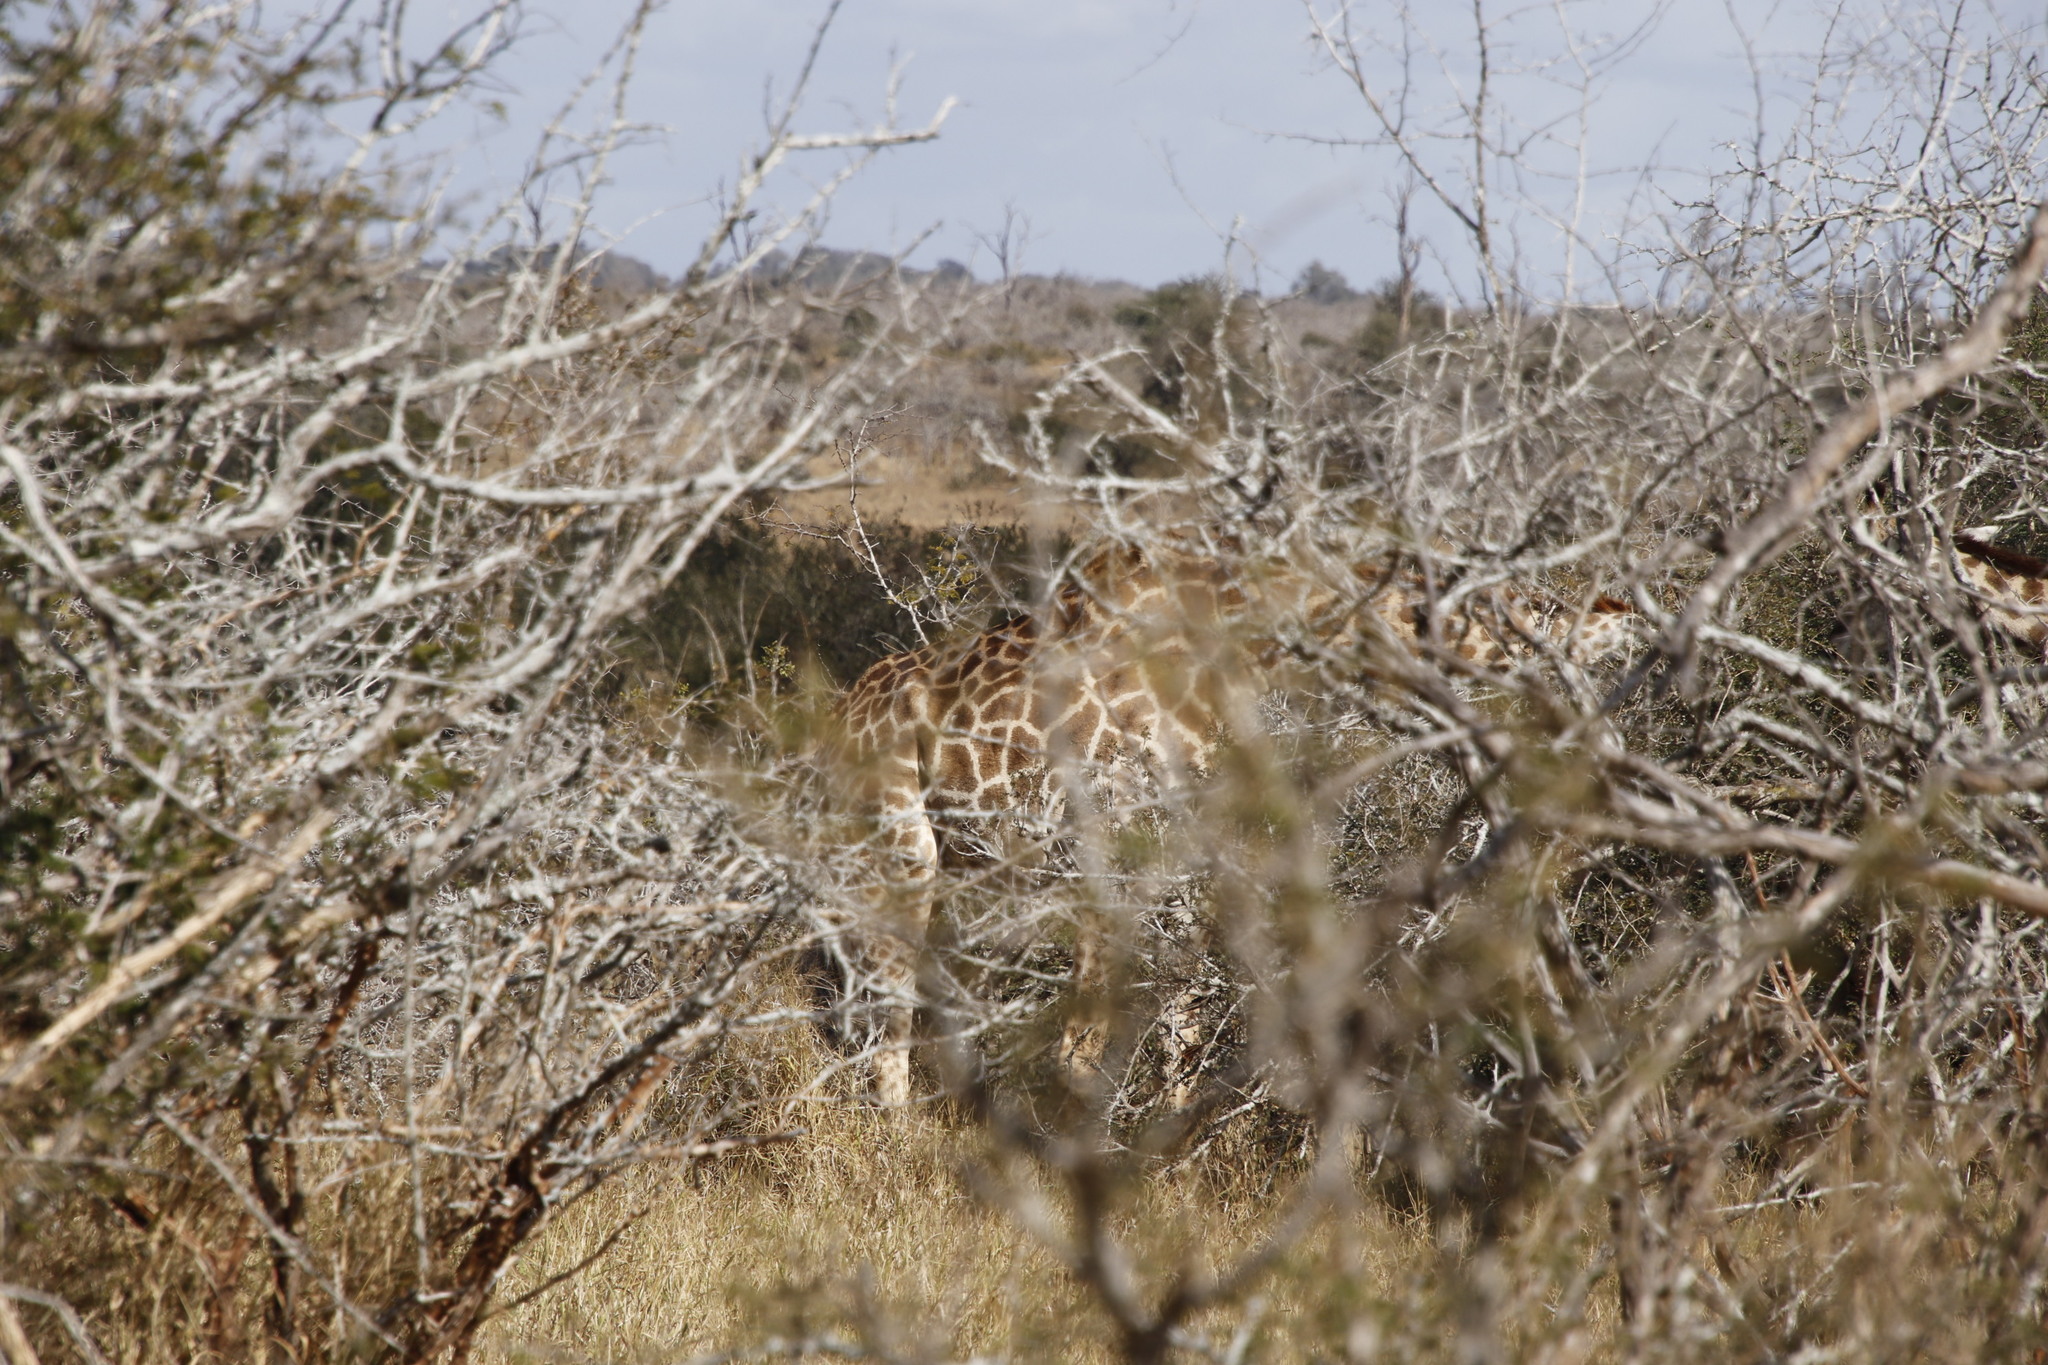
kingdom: Animalia
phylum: Chordata
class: Mammalia
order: Artiodactyla
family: Giraffidae
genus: Giraffa
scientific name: Giraffa giraffa
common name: Southern giraffe
